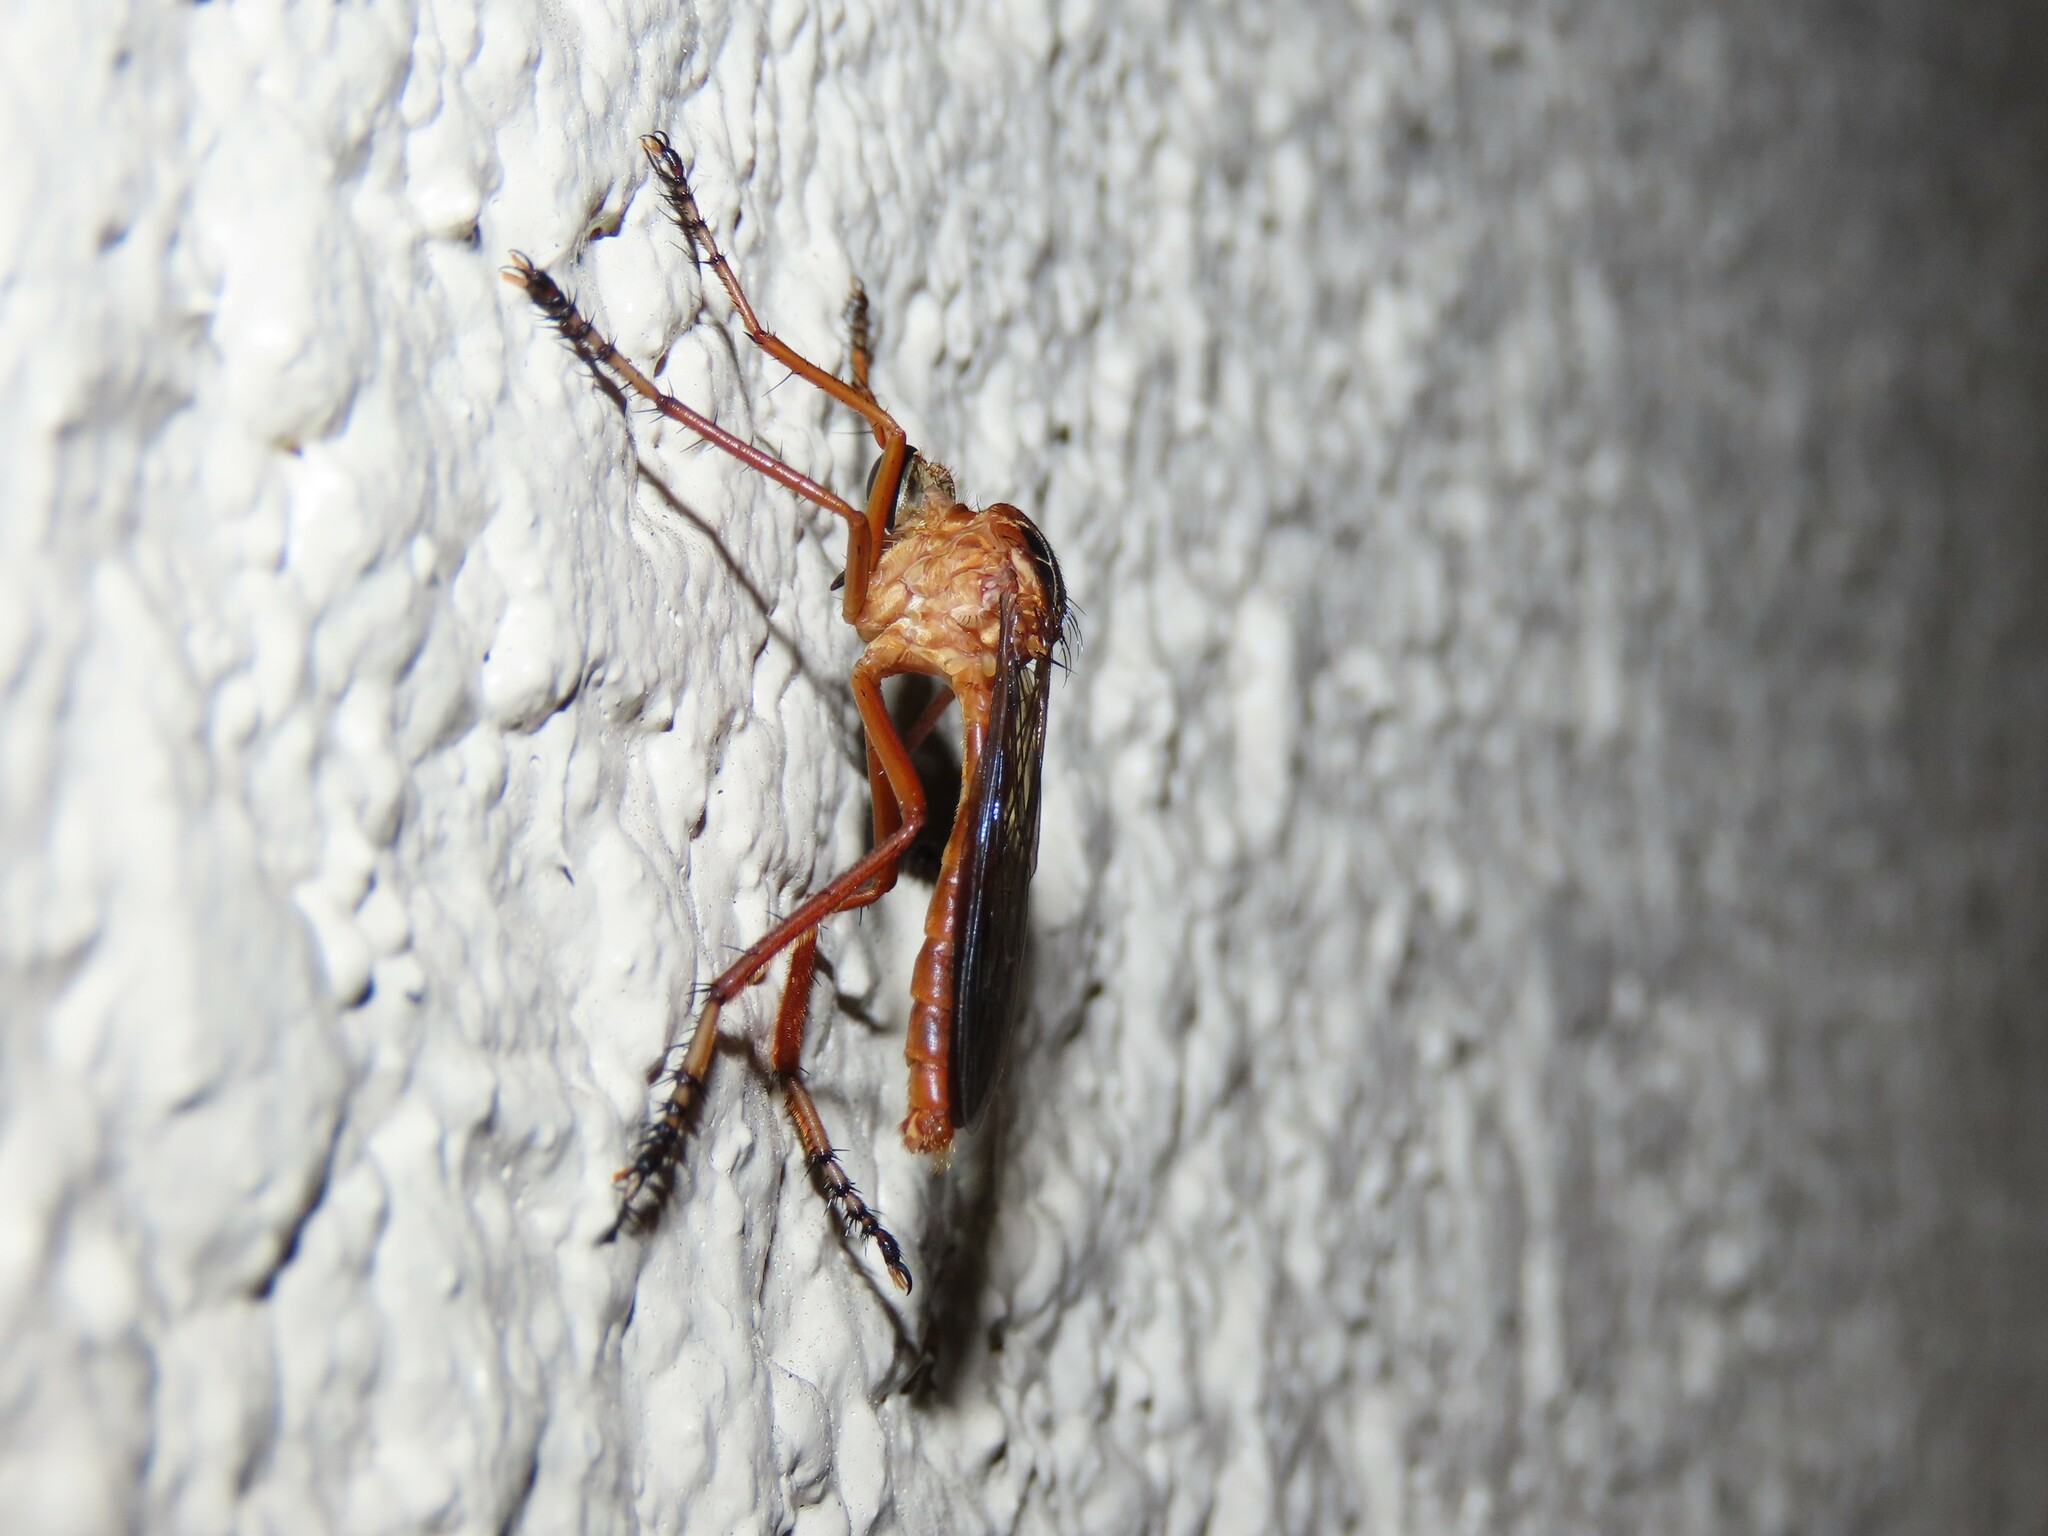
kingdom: Animalia
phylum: Arthropoda
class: Insecta
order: Diptera
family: Asilidae
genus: Diogmites
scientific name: Diogmites neoternatus
